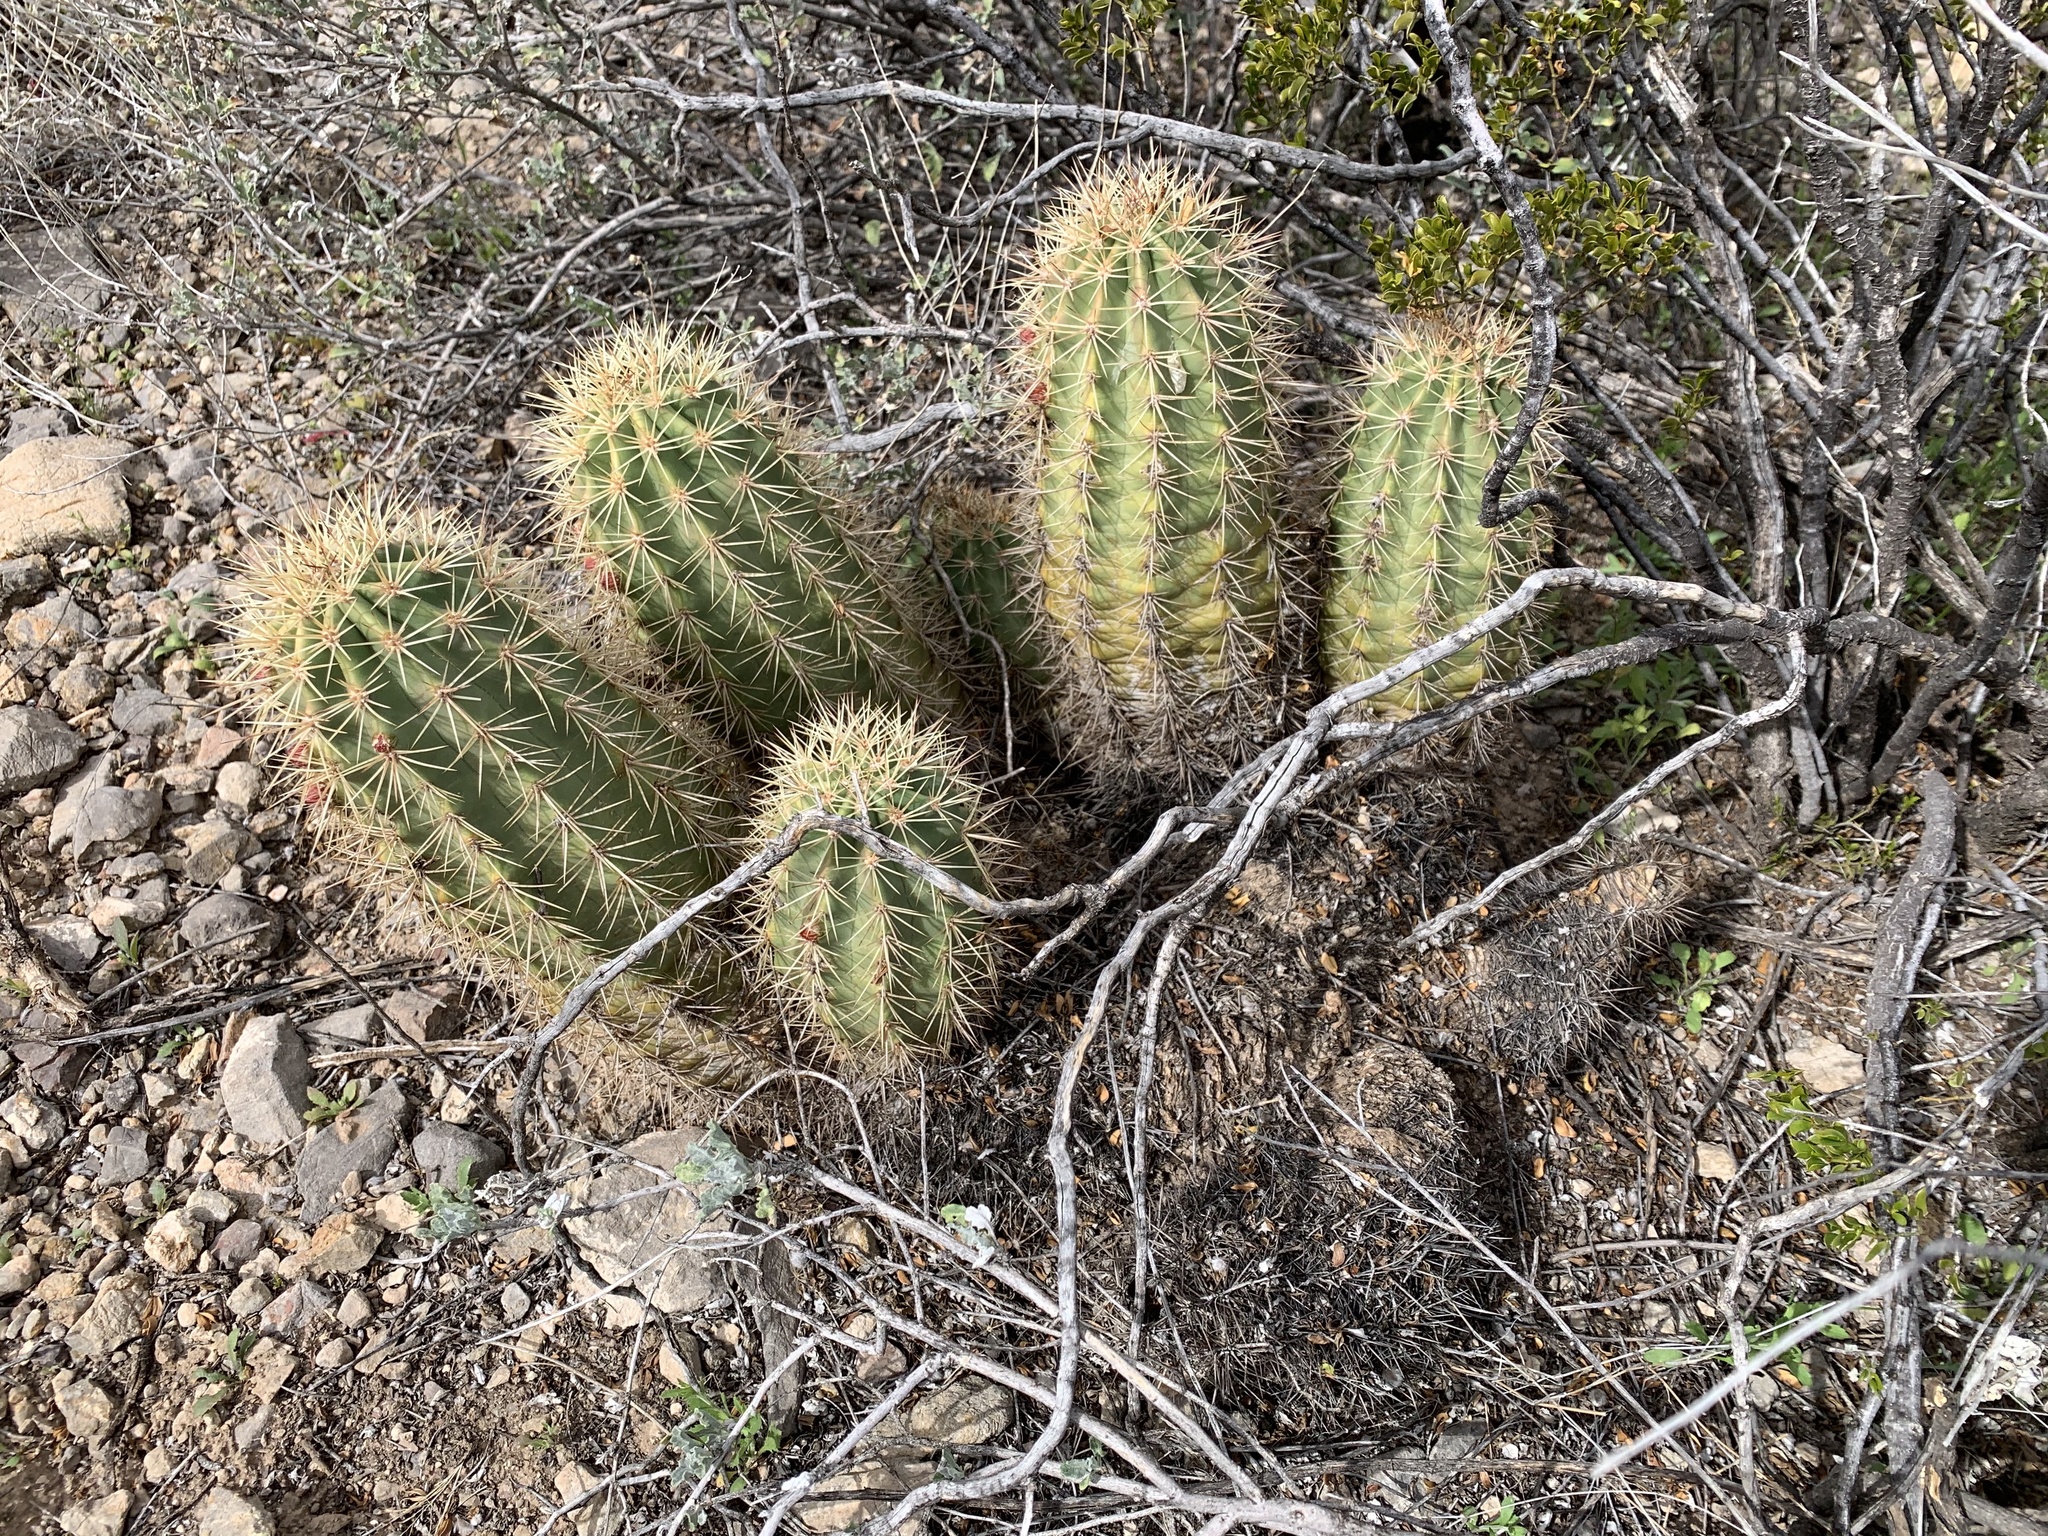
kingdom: Plantae
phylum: Tracheophyta
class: Magnoliopsida
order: Caryophyllales
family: Cactaceae
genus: Echinocereus
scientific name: Echinocereus coccineus
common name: Scarlet hedgehog cactus
